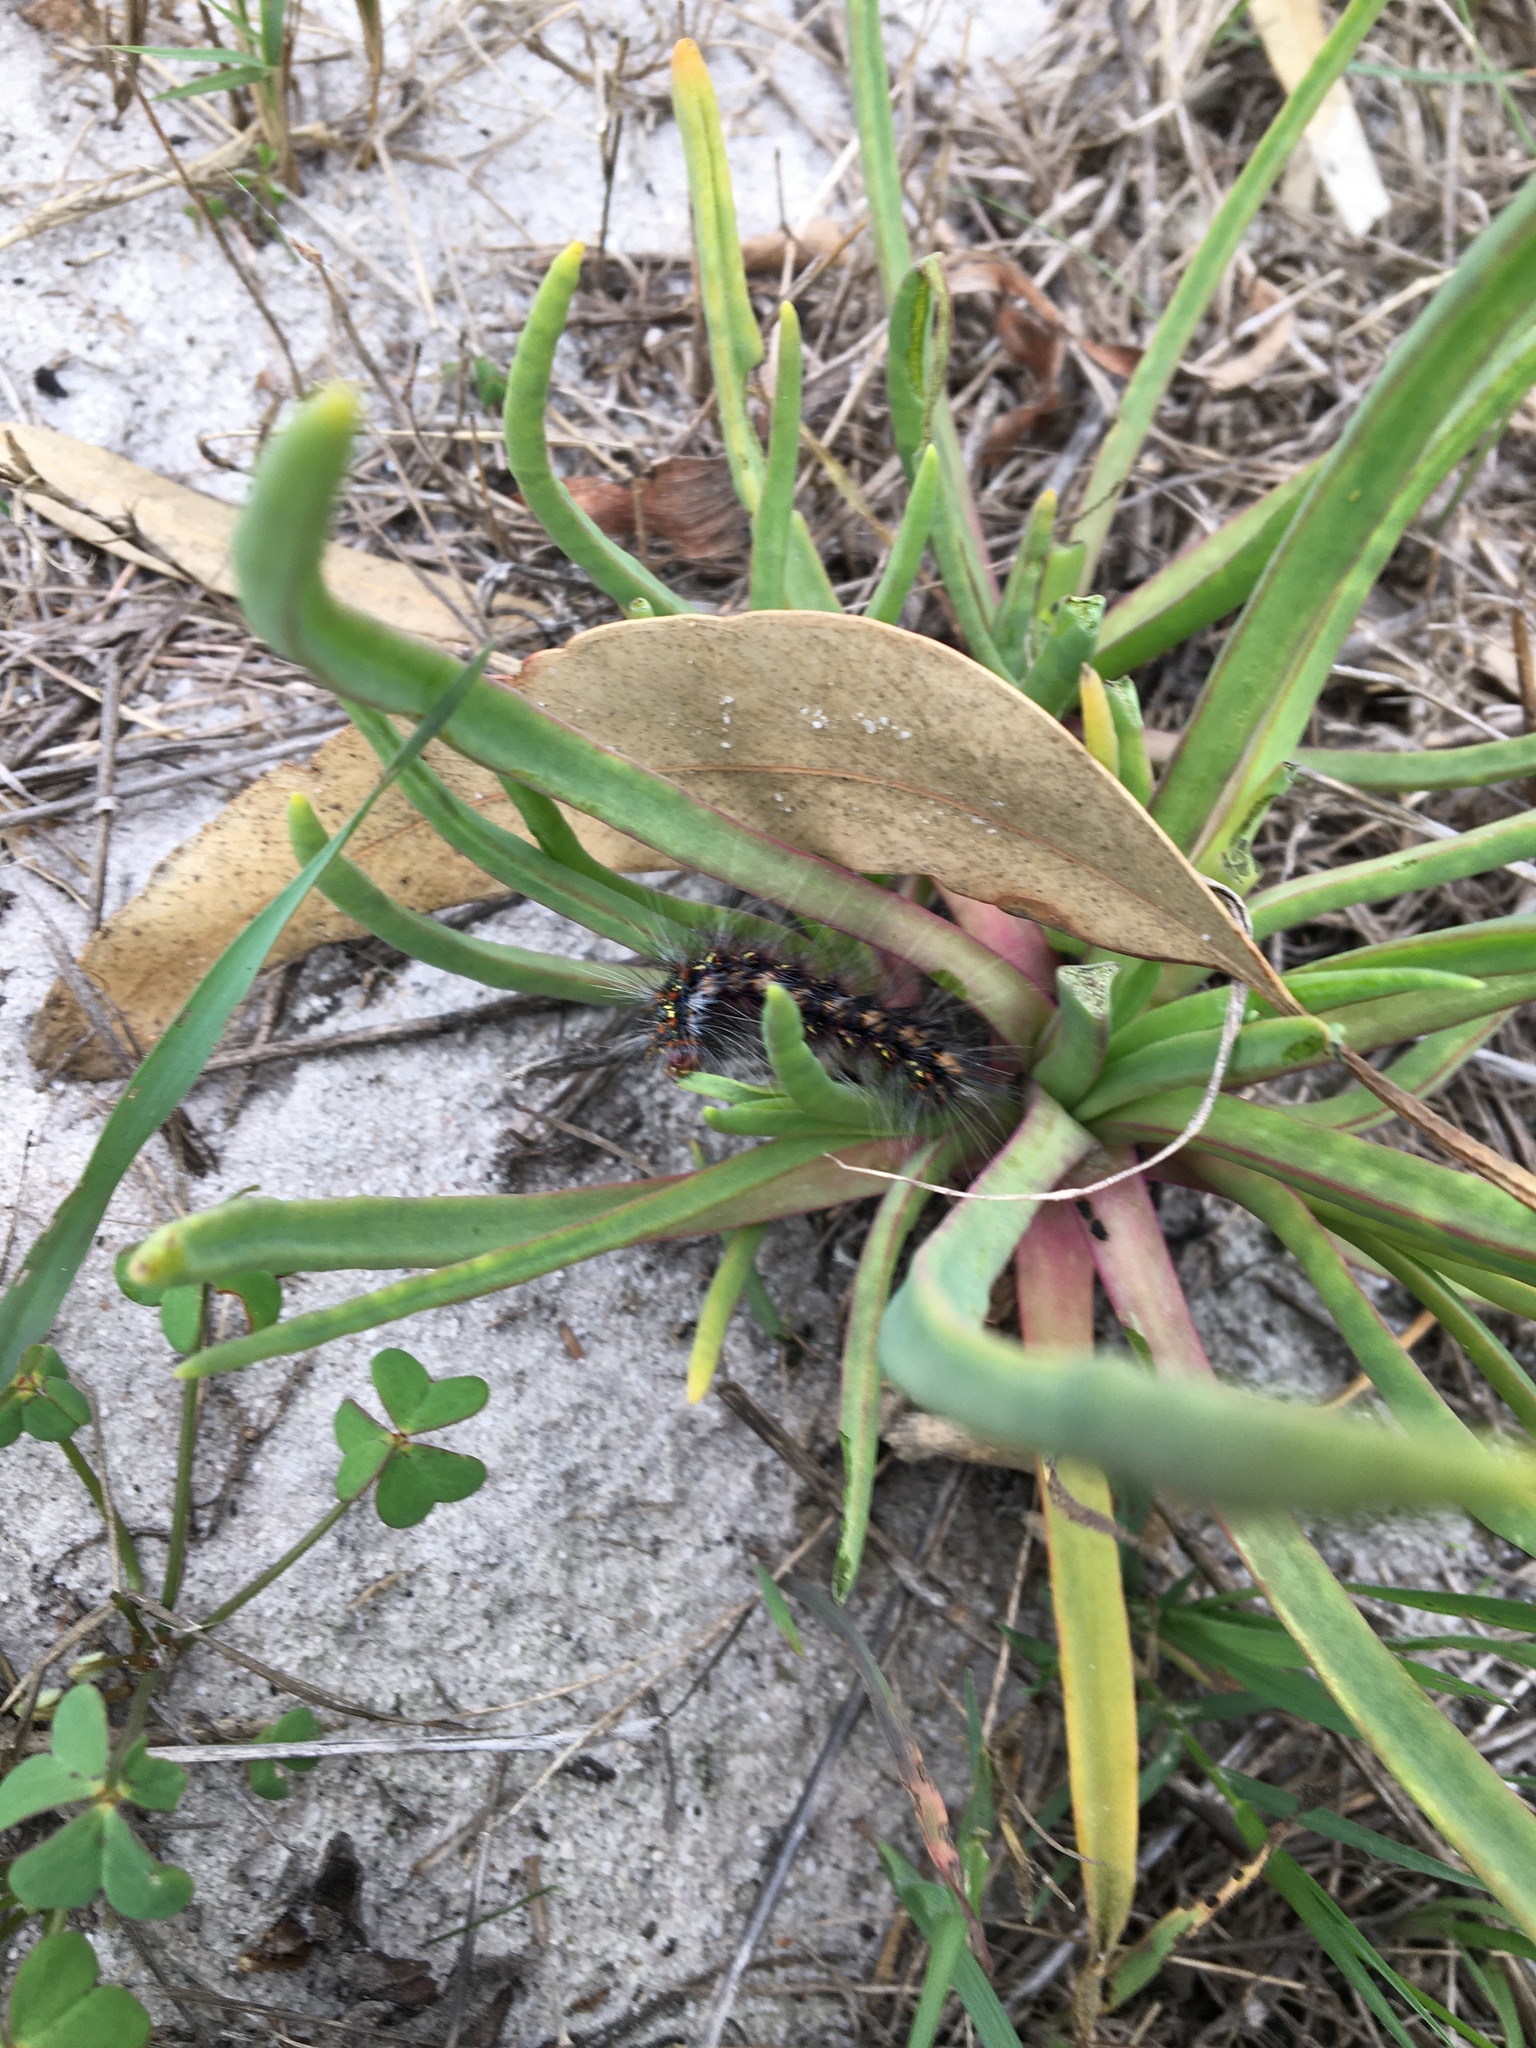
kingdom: Animalia
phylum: Arthropoda
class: Insecta
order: Lepidoptera
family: Erebidae
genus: Paralacydes
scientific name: Paralacydes vocula
